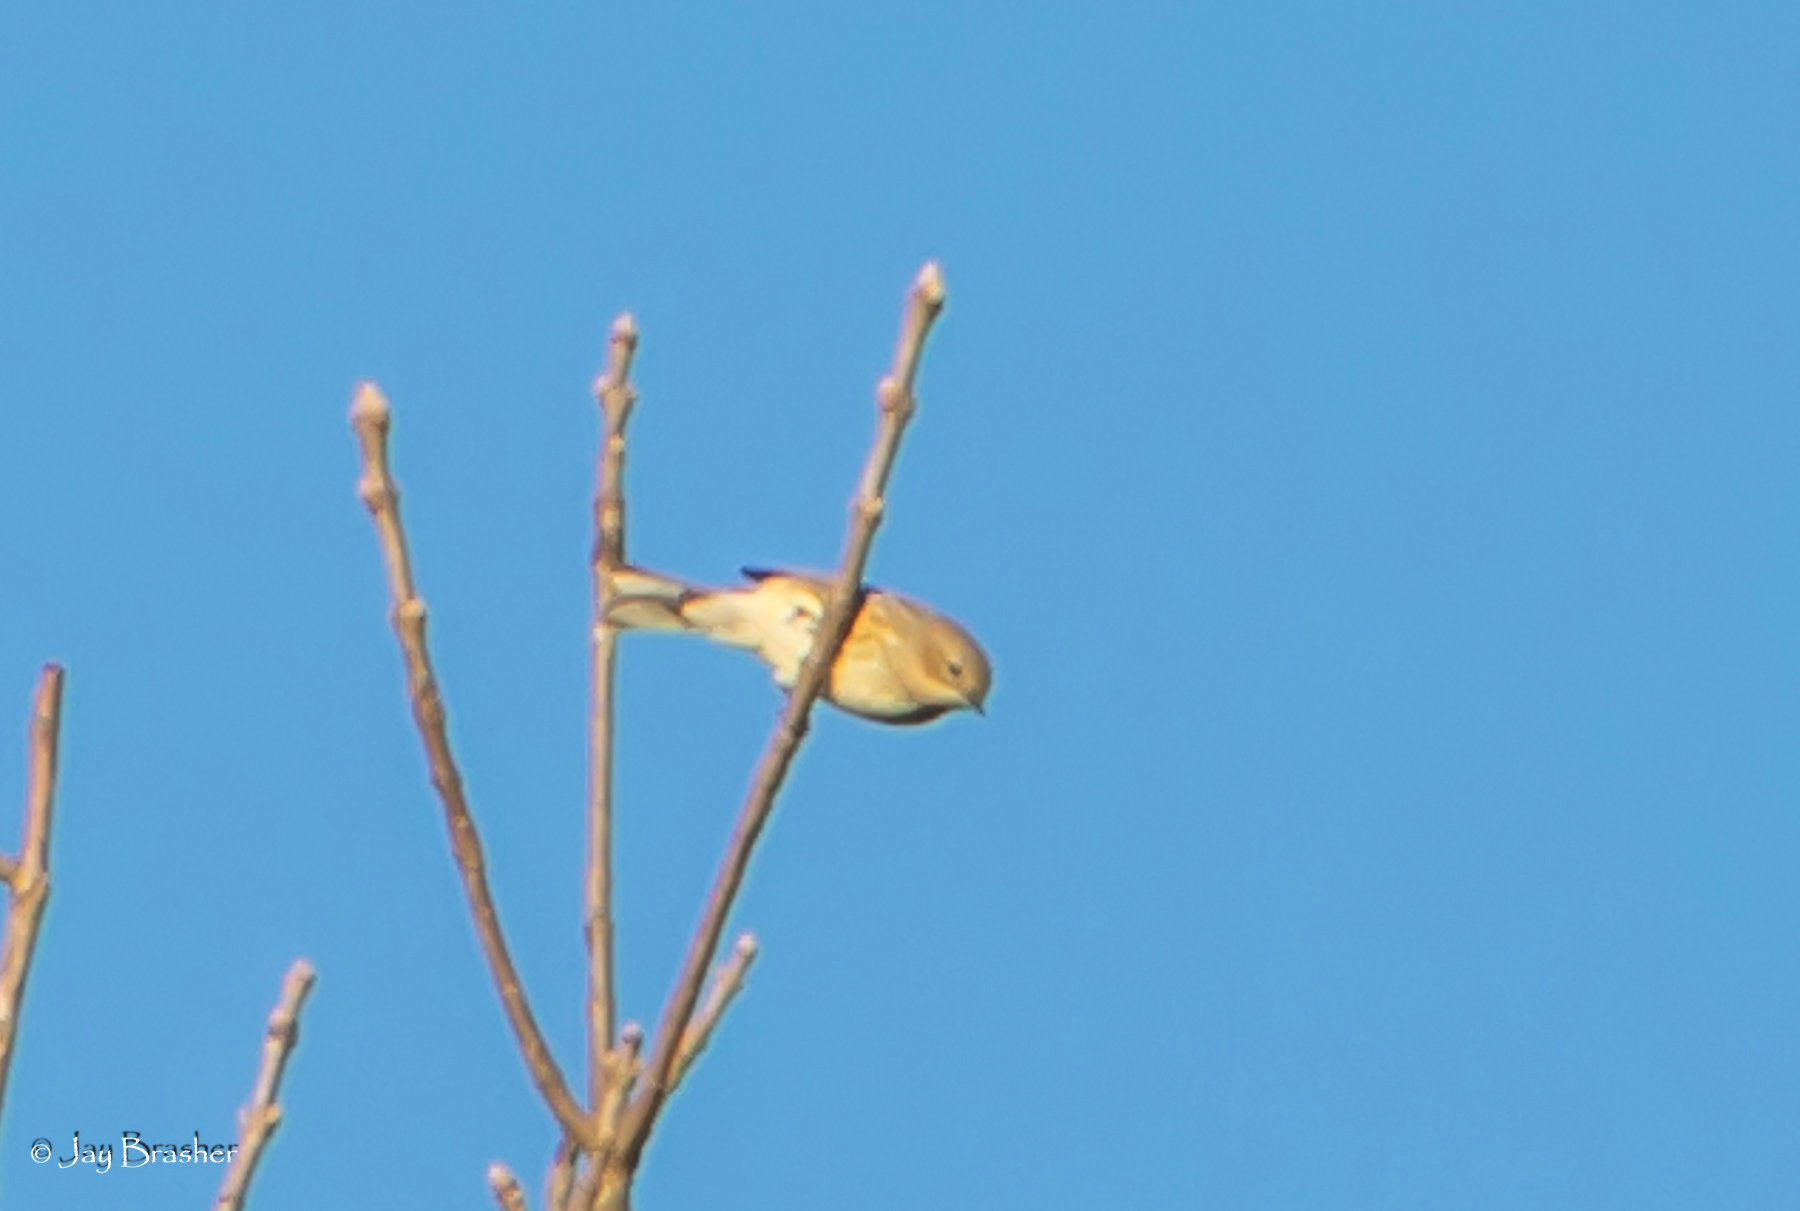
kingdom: Animalia
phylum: Chordata
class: Aves
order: Passeriformes
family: Parulidae
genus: Setophaga
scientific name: Setophaga coronata
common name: Myrtle warbler
